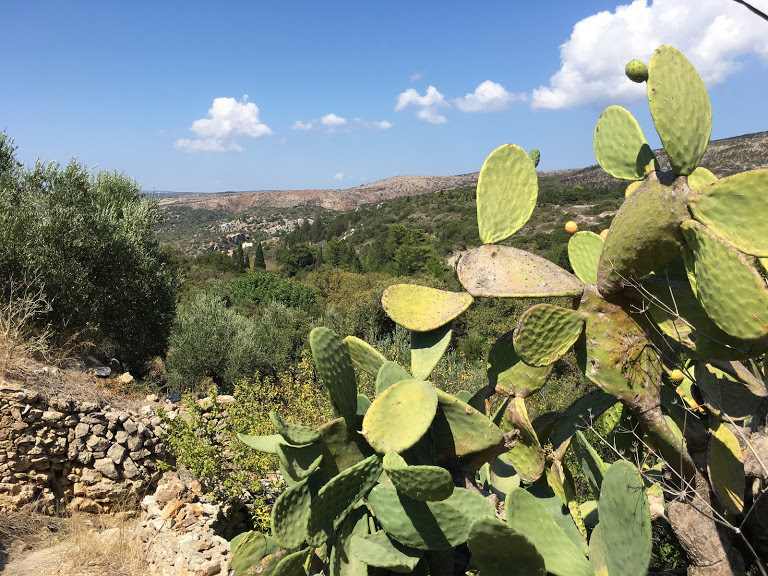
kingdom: Plantae
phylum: Tracheophyta
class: Magnoliopsida
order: Caryophyllales
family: Cactaceae
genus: Opuntia
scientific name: Opuntia ficus-indica
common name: Barbary fig
